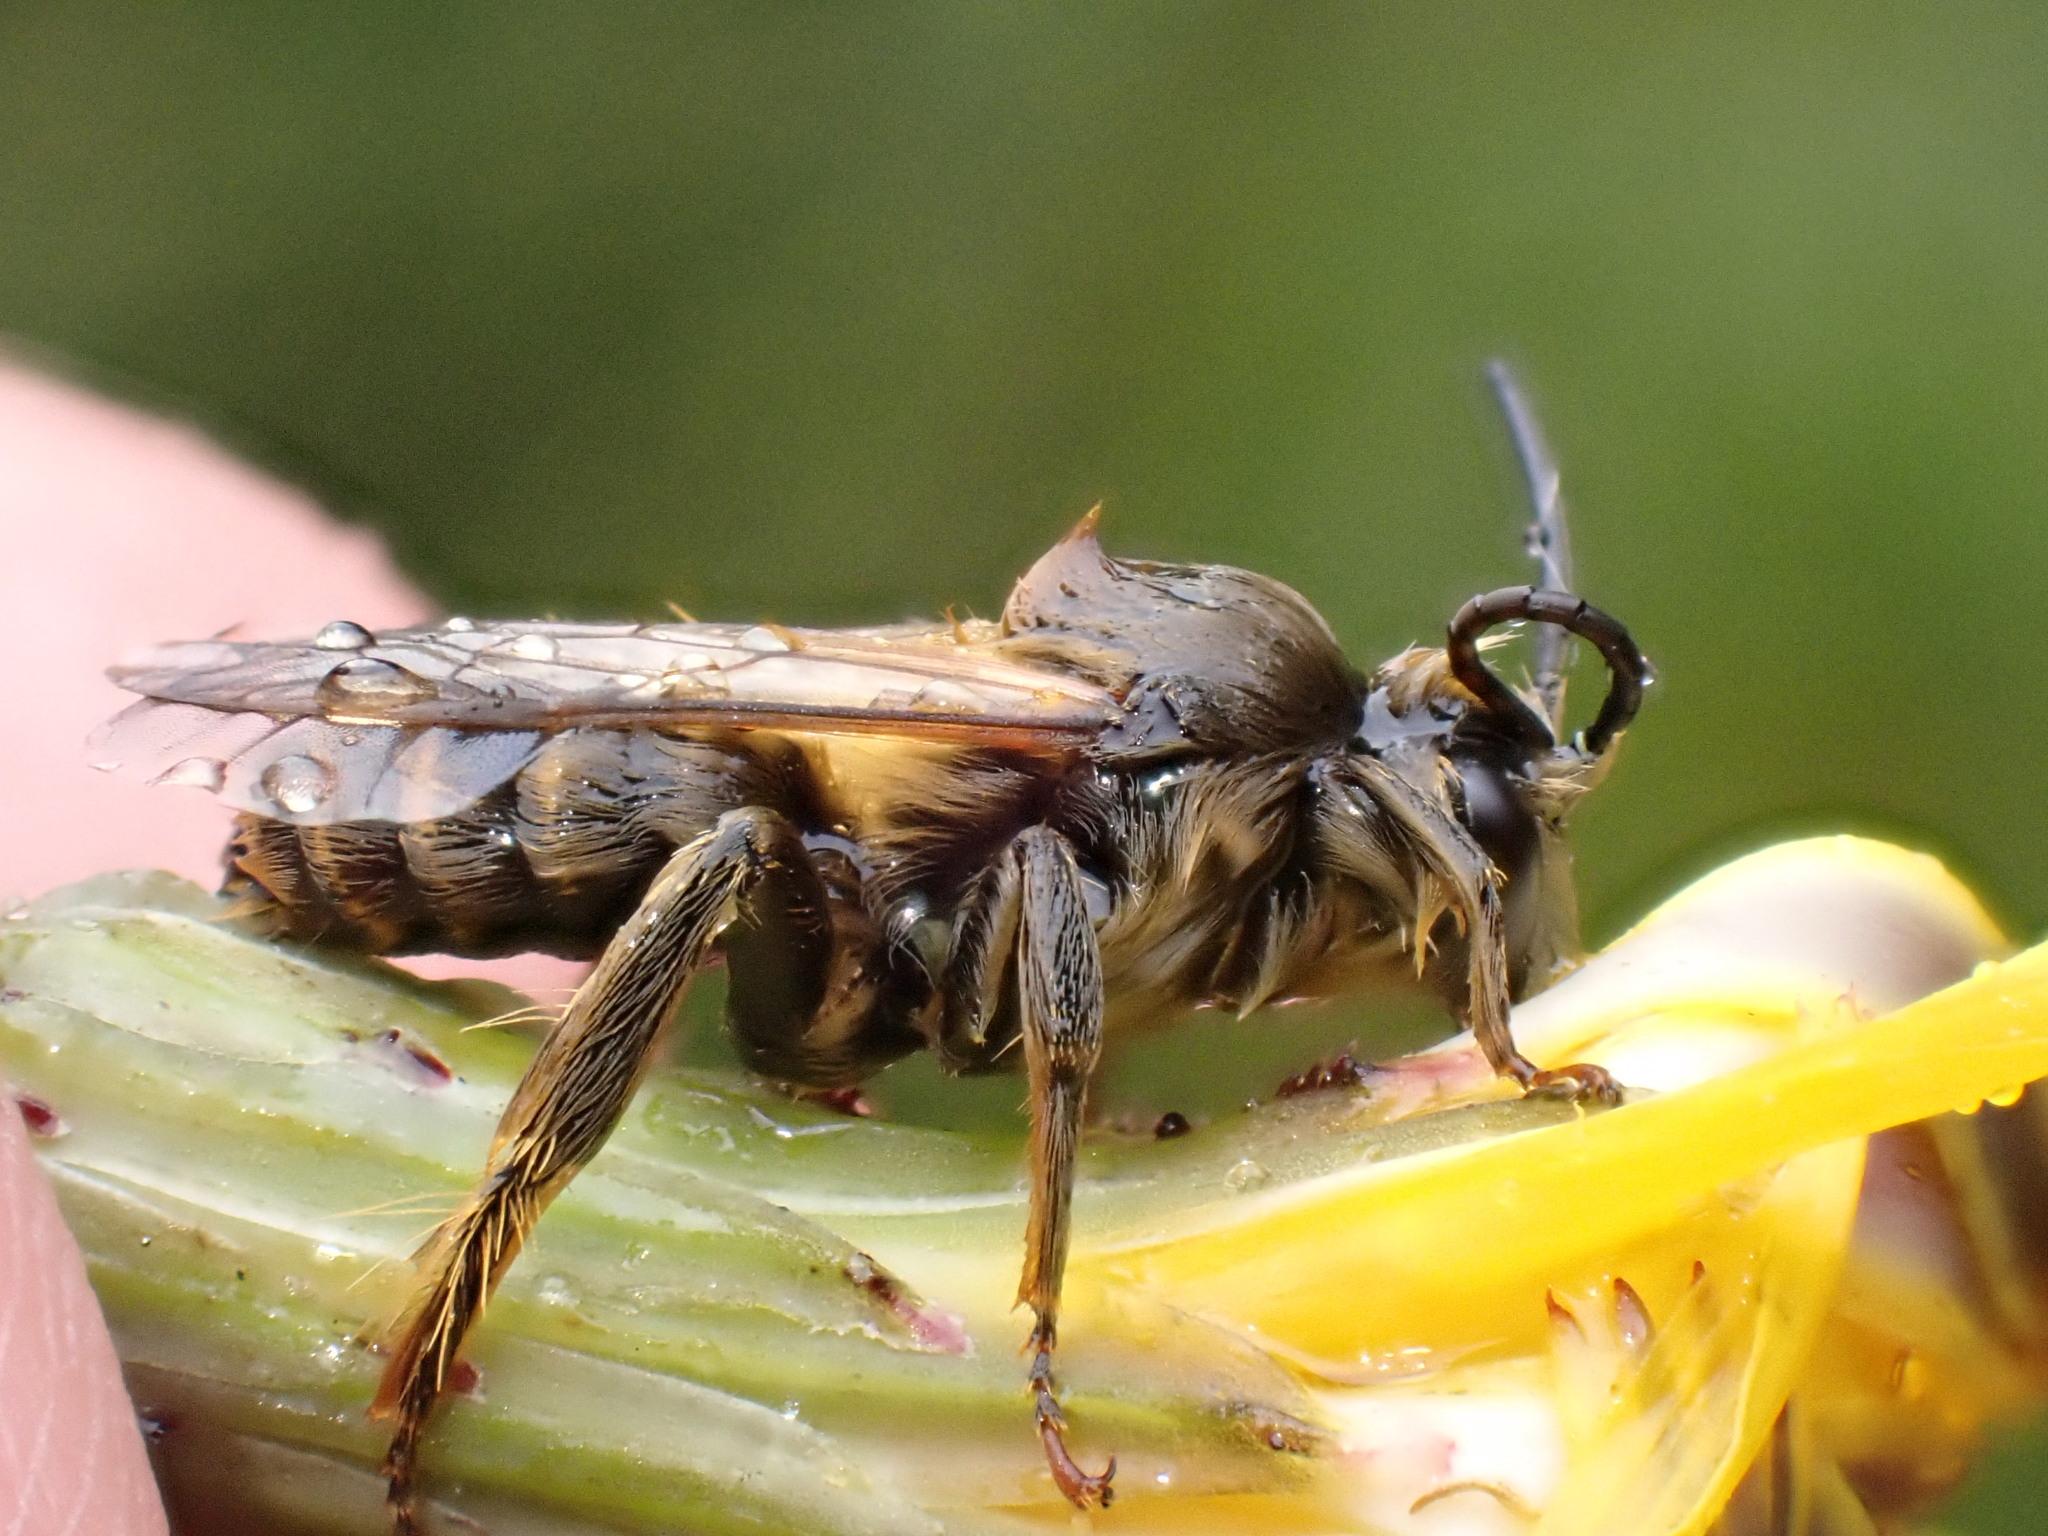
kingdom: Animalia
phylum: Arthropoda
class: Insecta
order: Hymenoptera
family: Melittidae
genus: Dasypoda
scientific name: Dasypoda hirtipes
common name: Pantaloon bee
